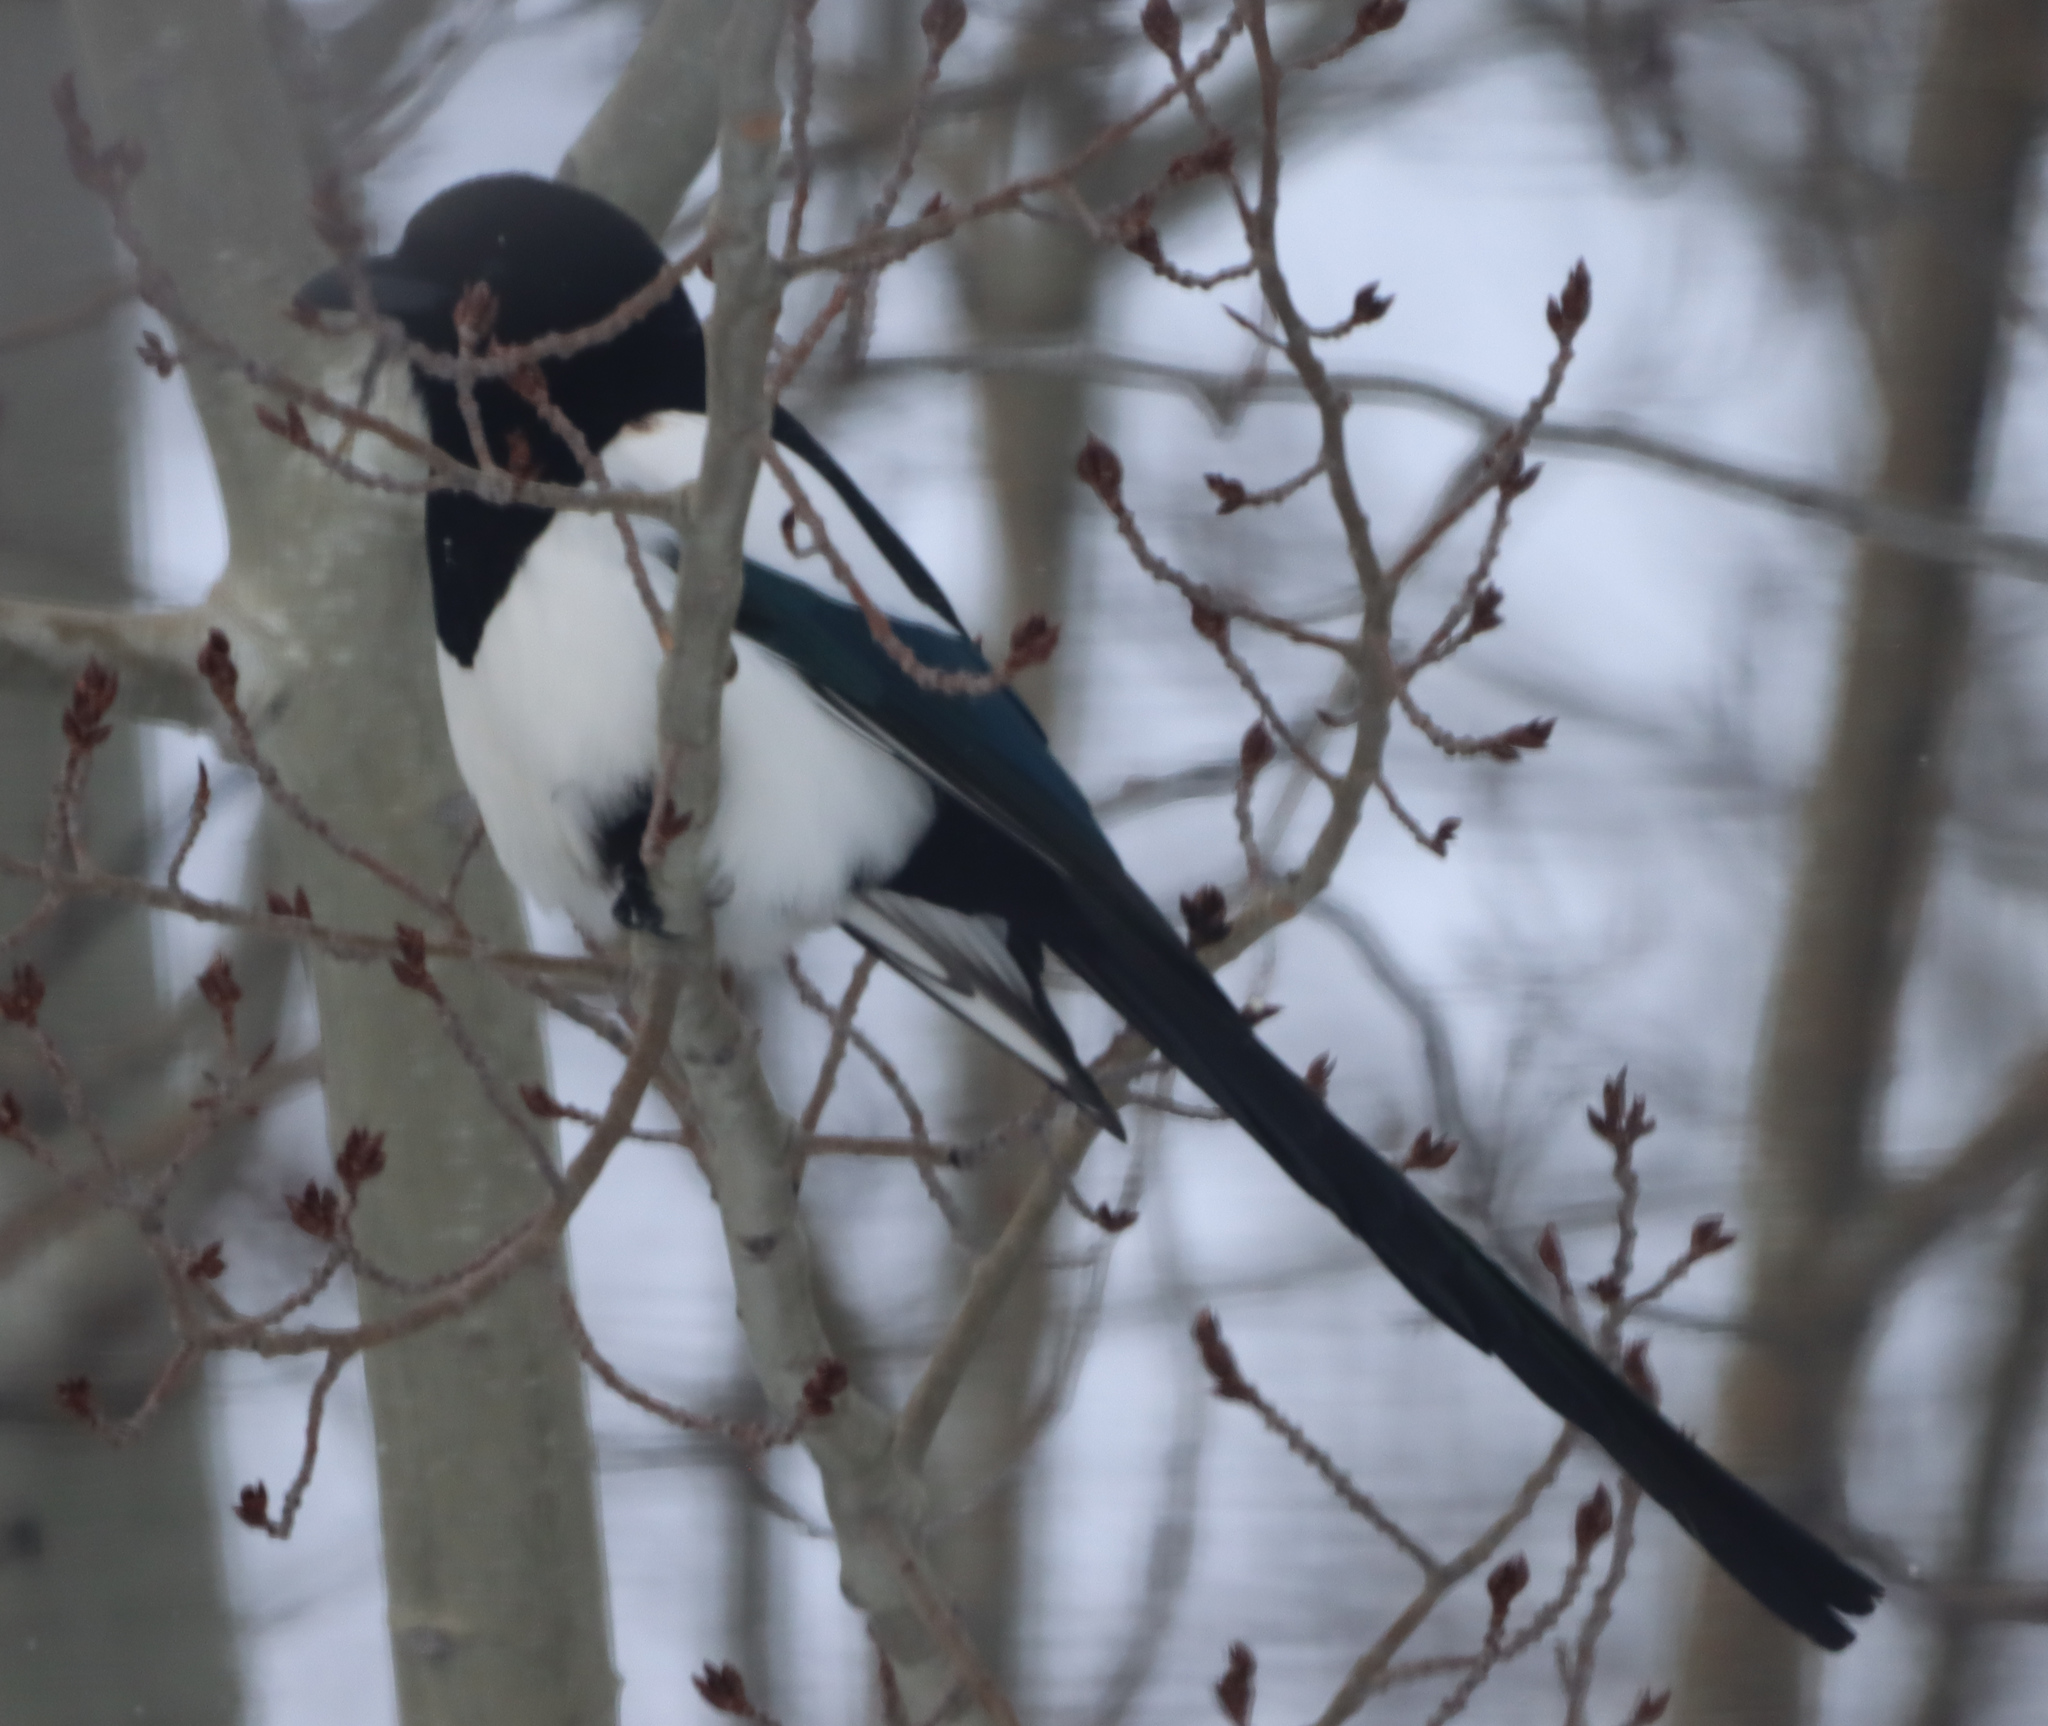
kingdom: Animalia
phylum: Chordata
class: Aves
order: Passeriformes
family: Corvidae
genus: Pica
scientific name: Pica hudsonia
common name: Black-billed magpie
